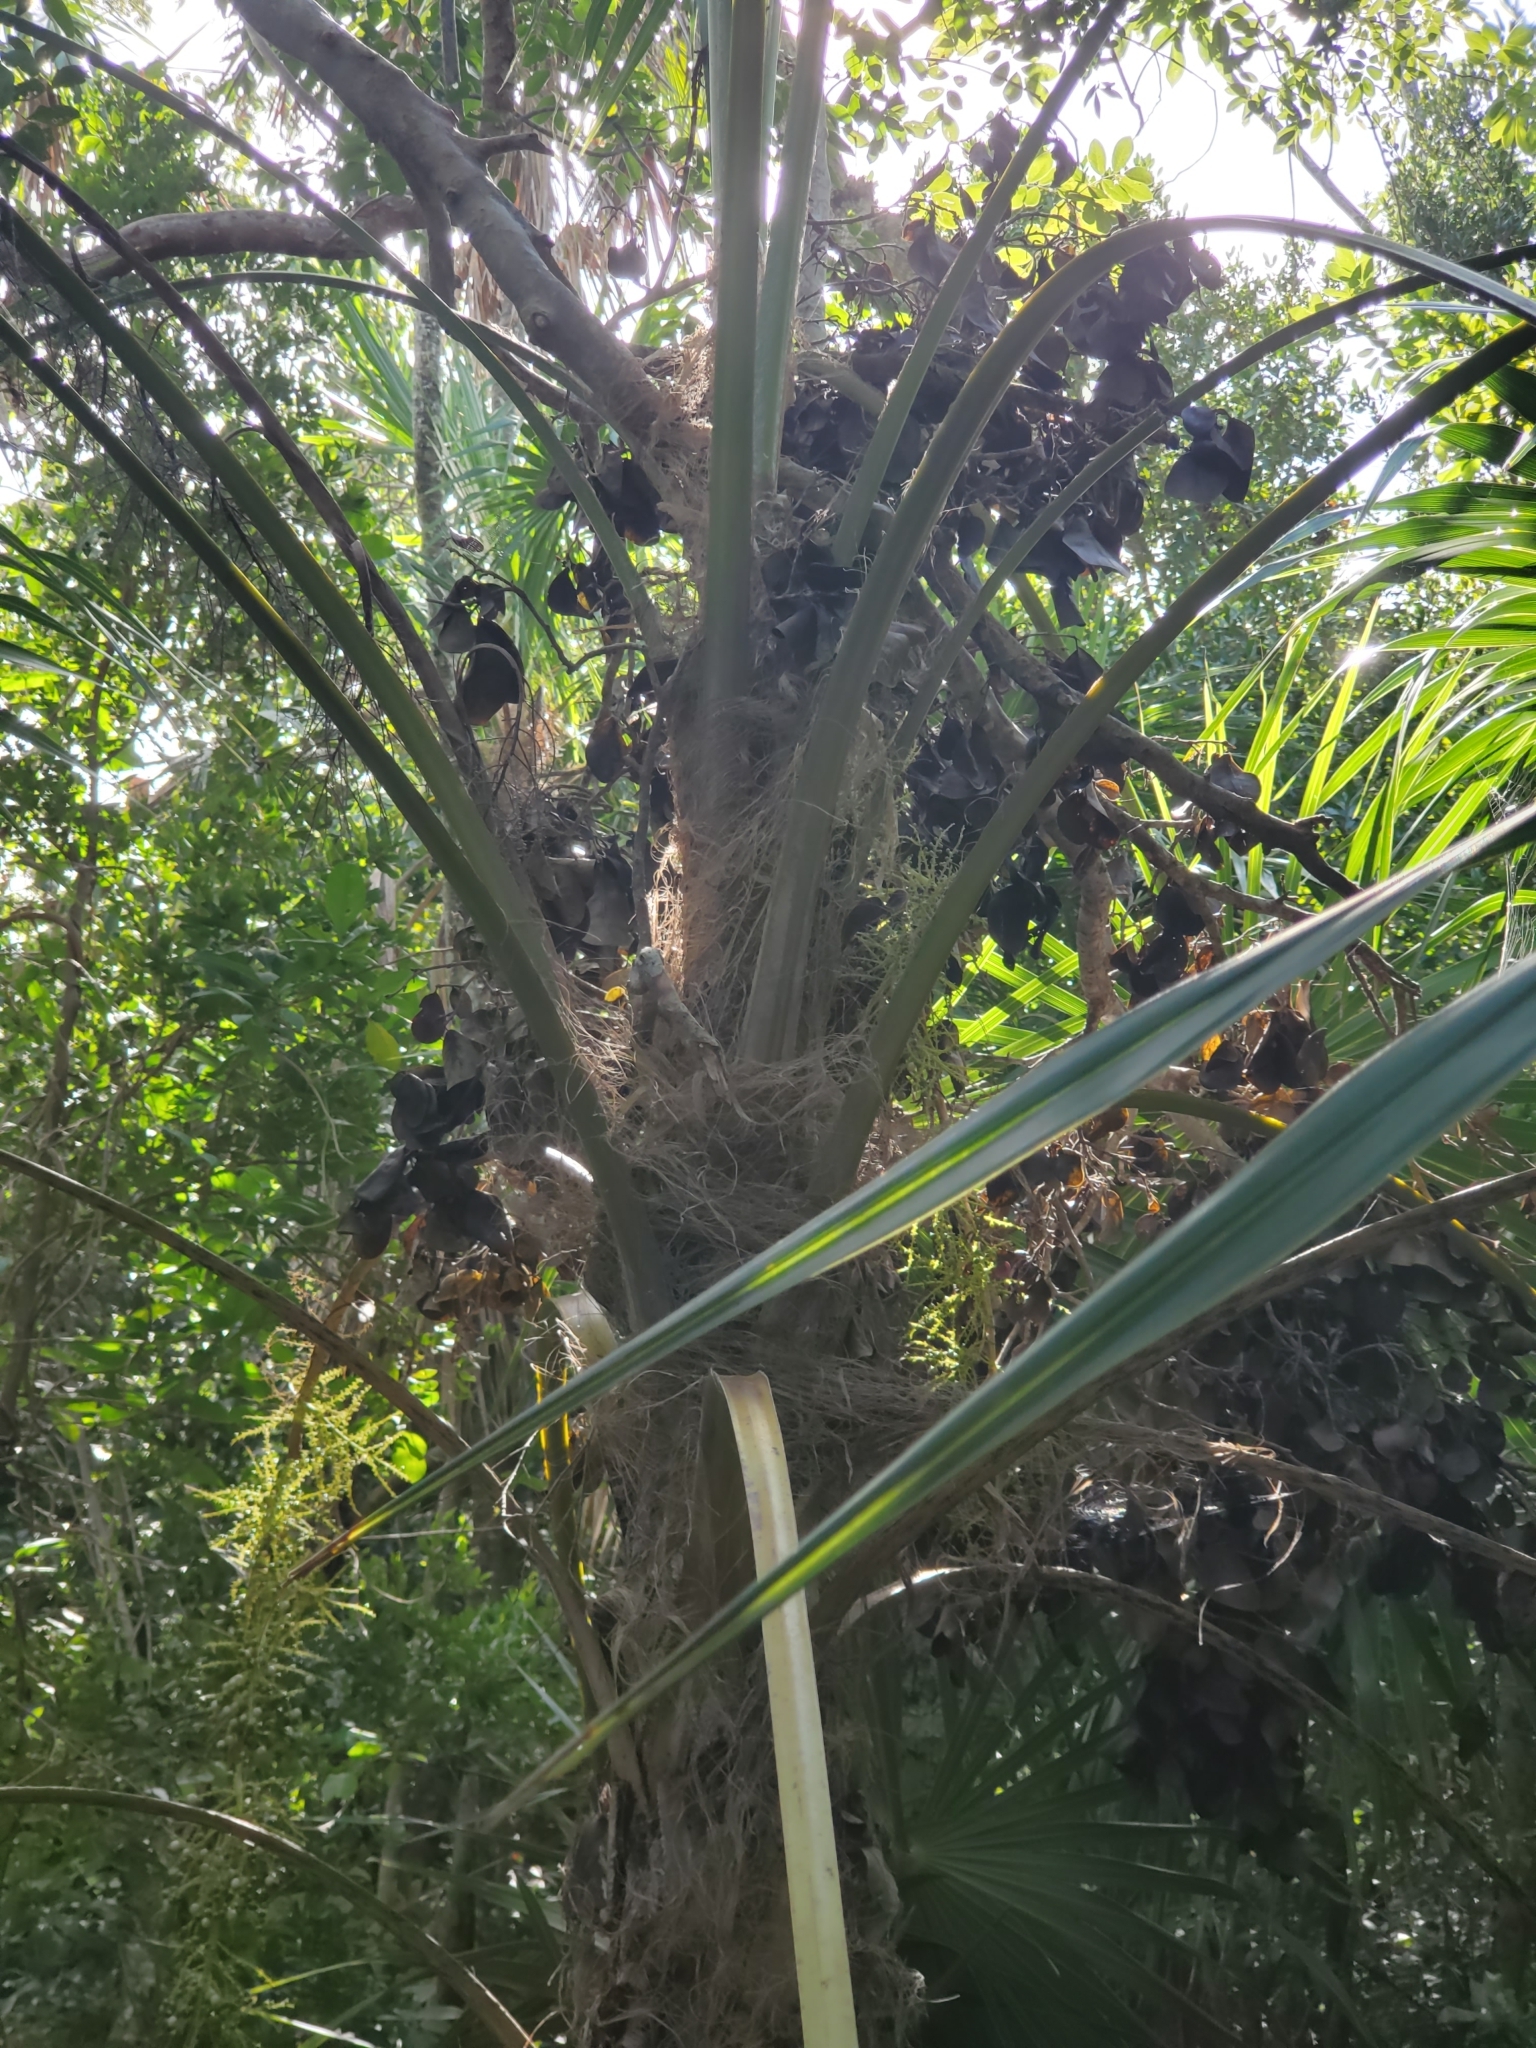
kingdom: Plantae
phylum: Tracheophyta
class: Liliopsida
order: Arecales
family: Arecaceae
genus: Thrinax
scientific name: Thrinax radiata
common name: Florida thatch
